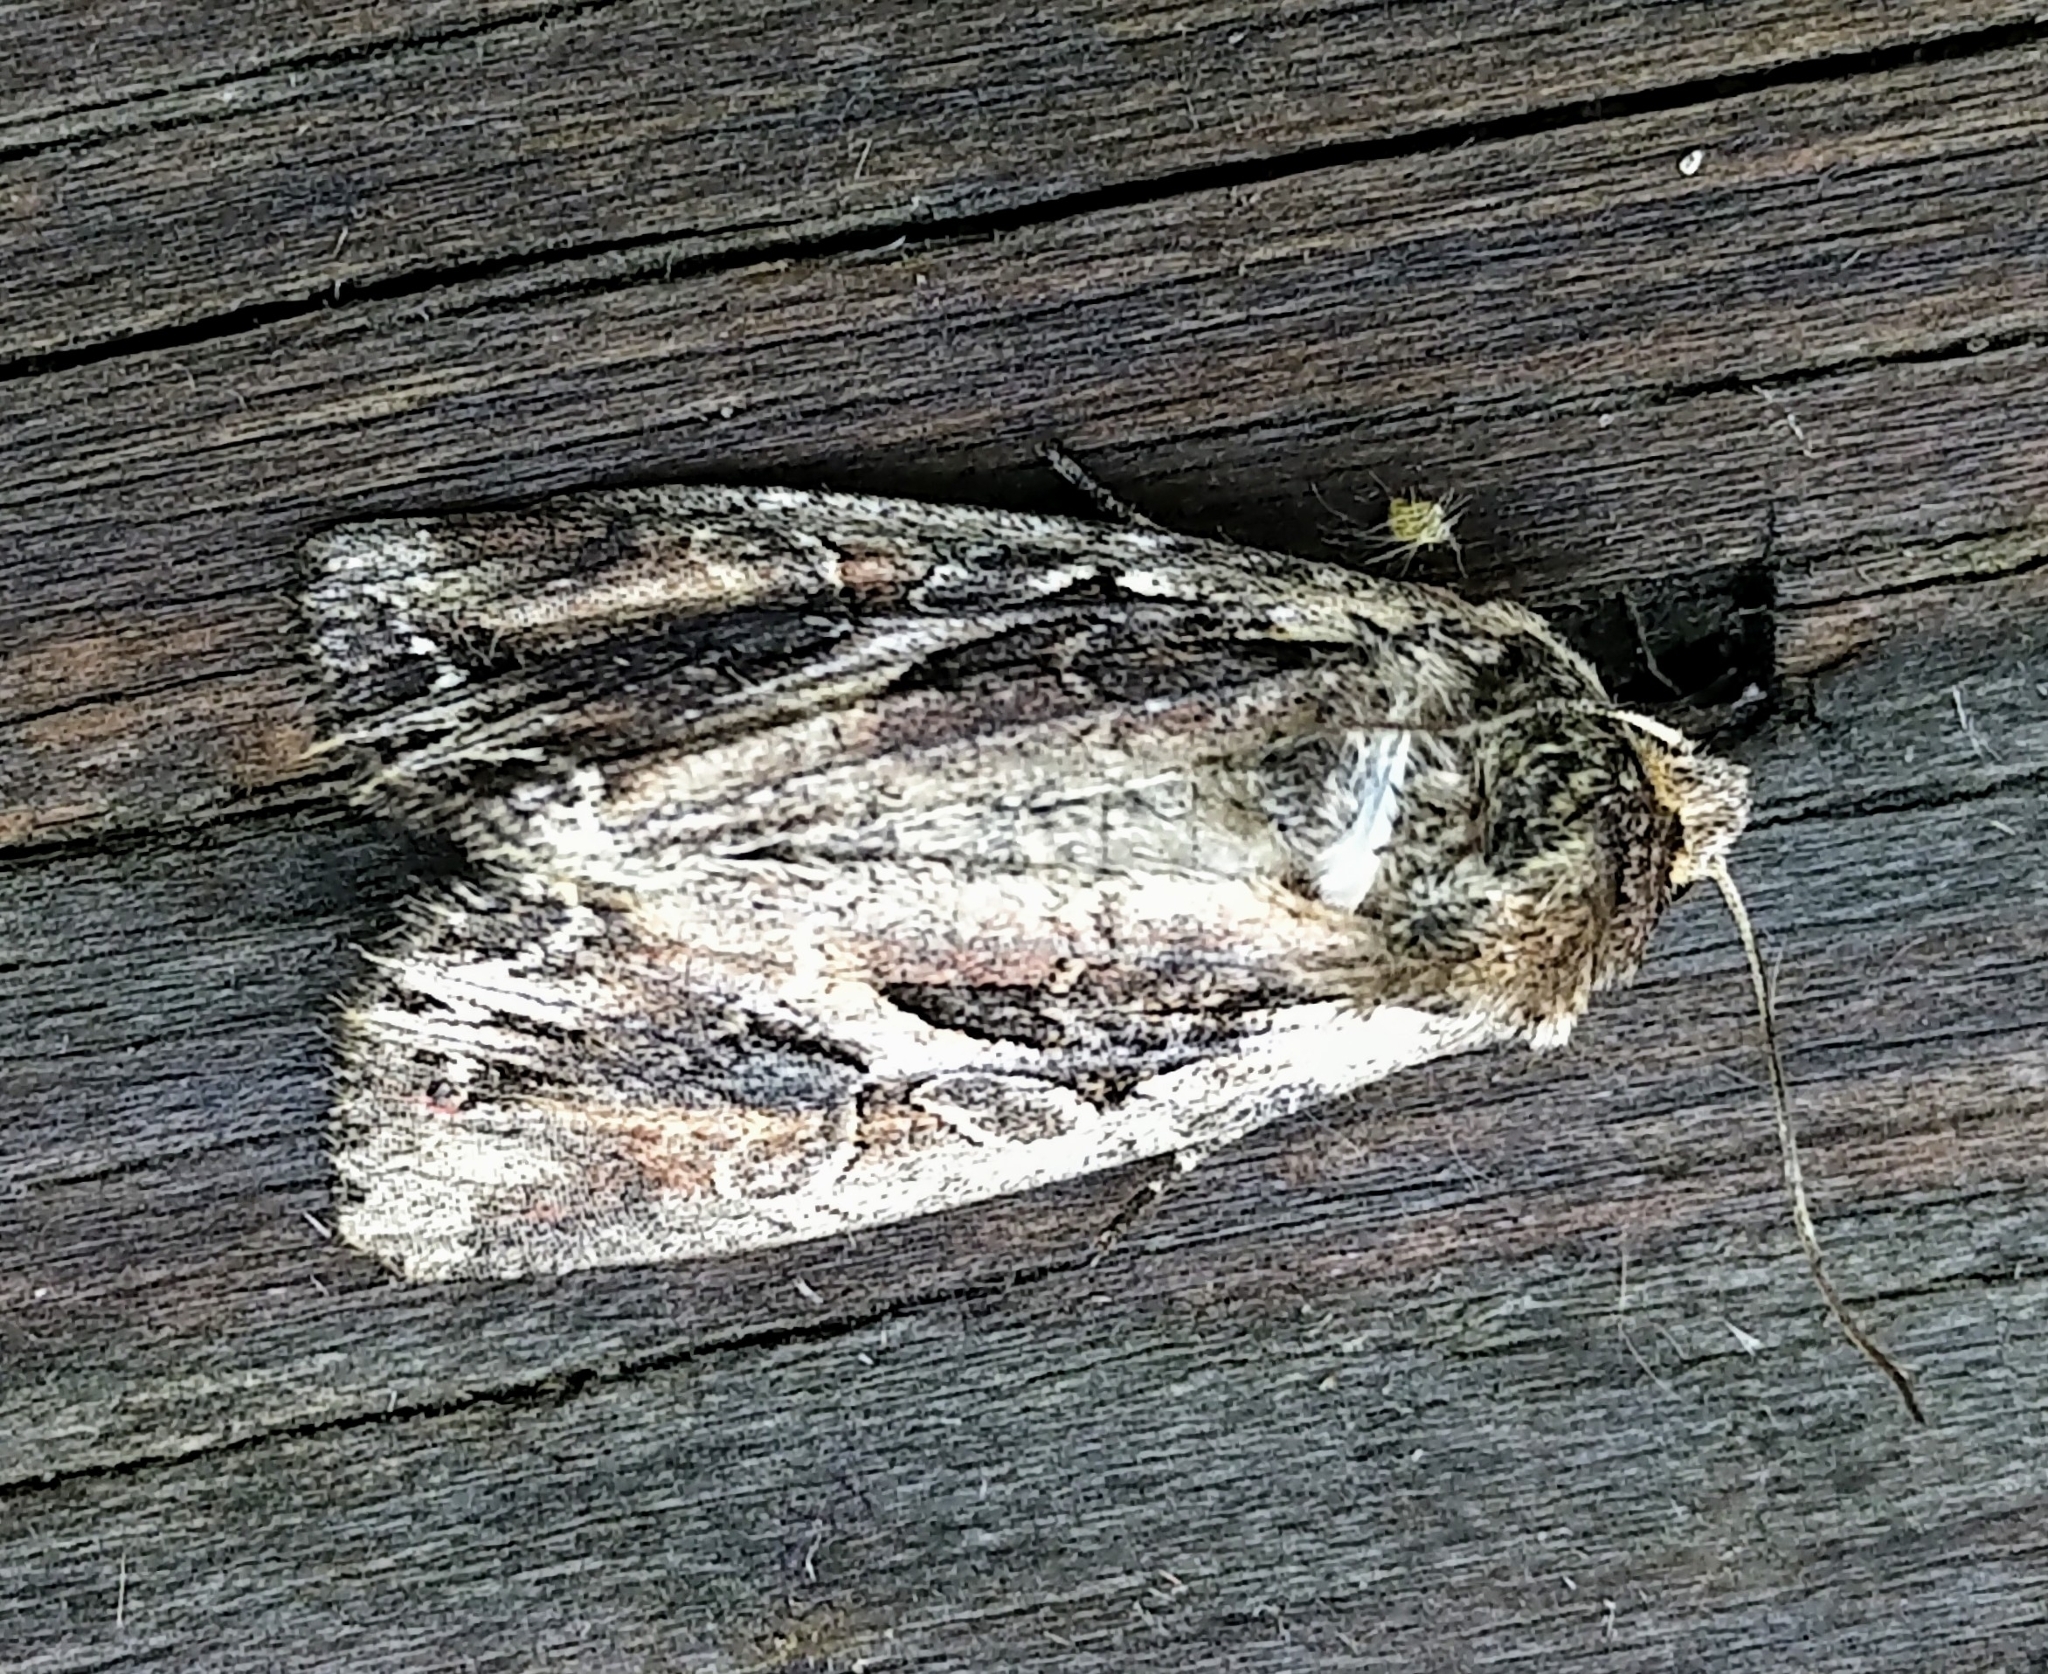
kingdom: Animalia
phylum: Arthropoda
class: Insecta
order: Lepidoptera
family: Noctuidae
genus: Lacanobia
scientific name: Lacanobia atlantica
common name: Atlantic arches moth
